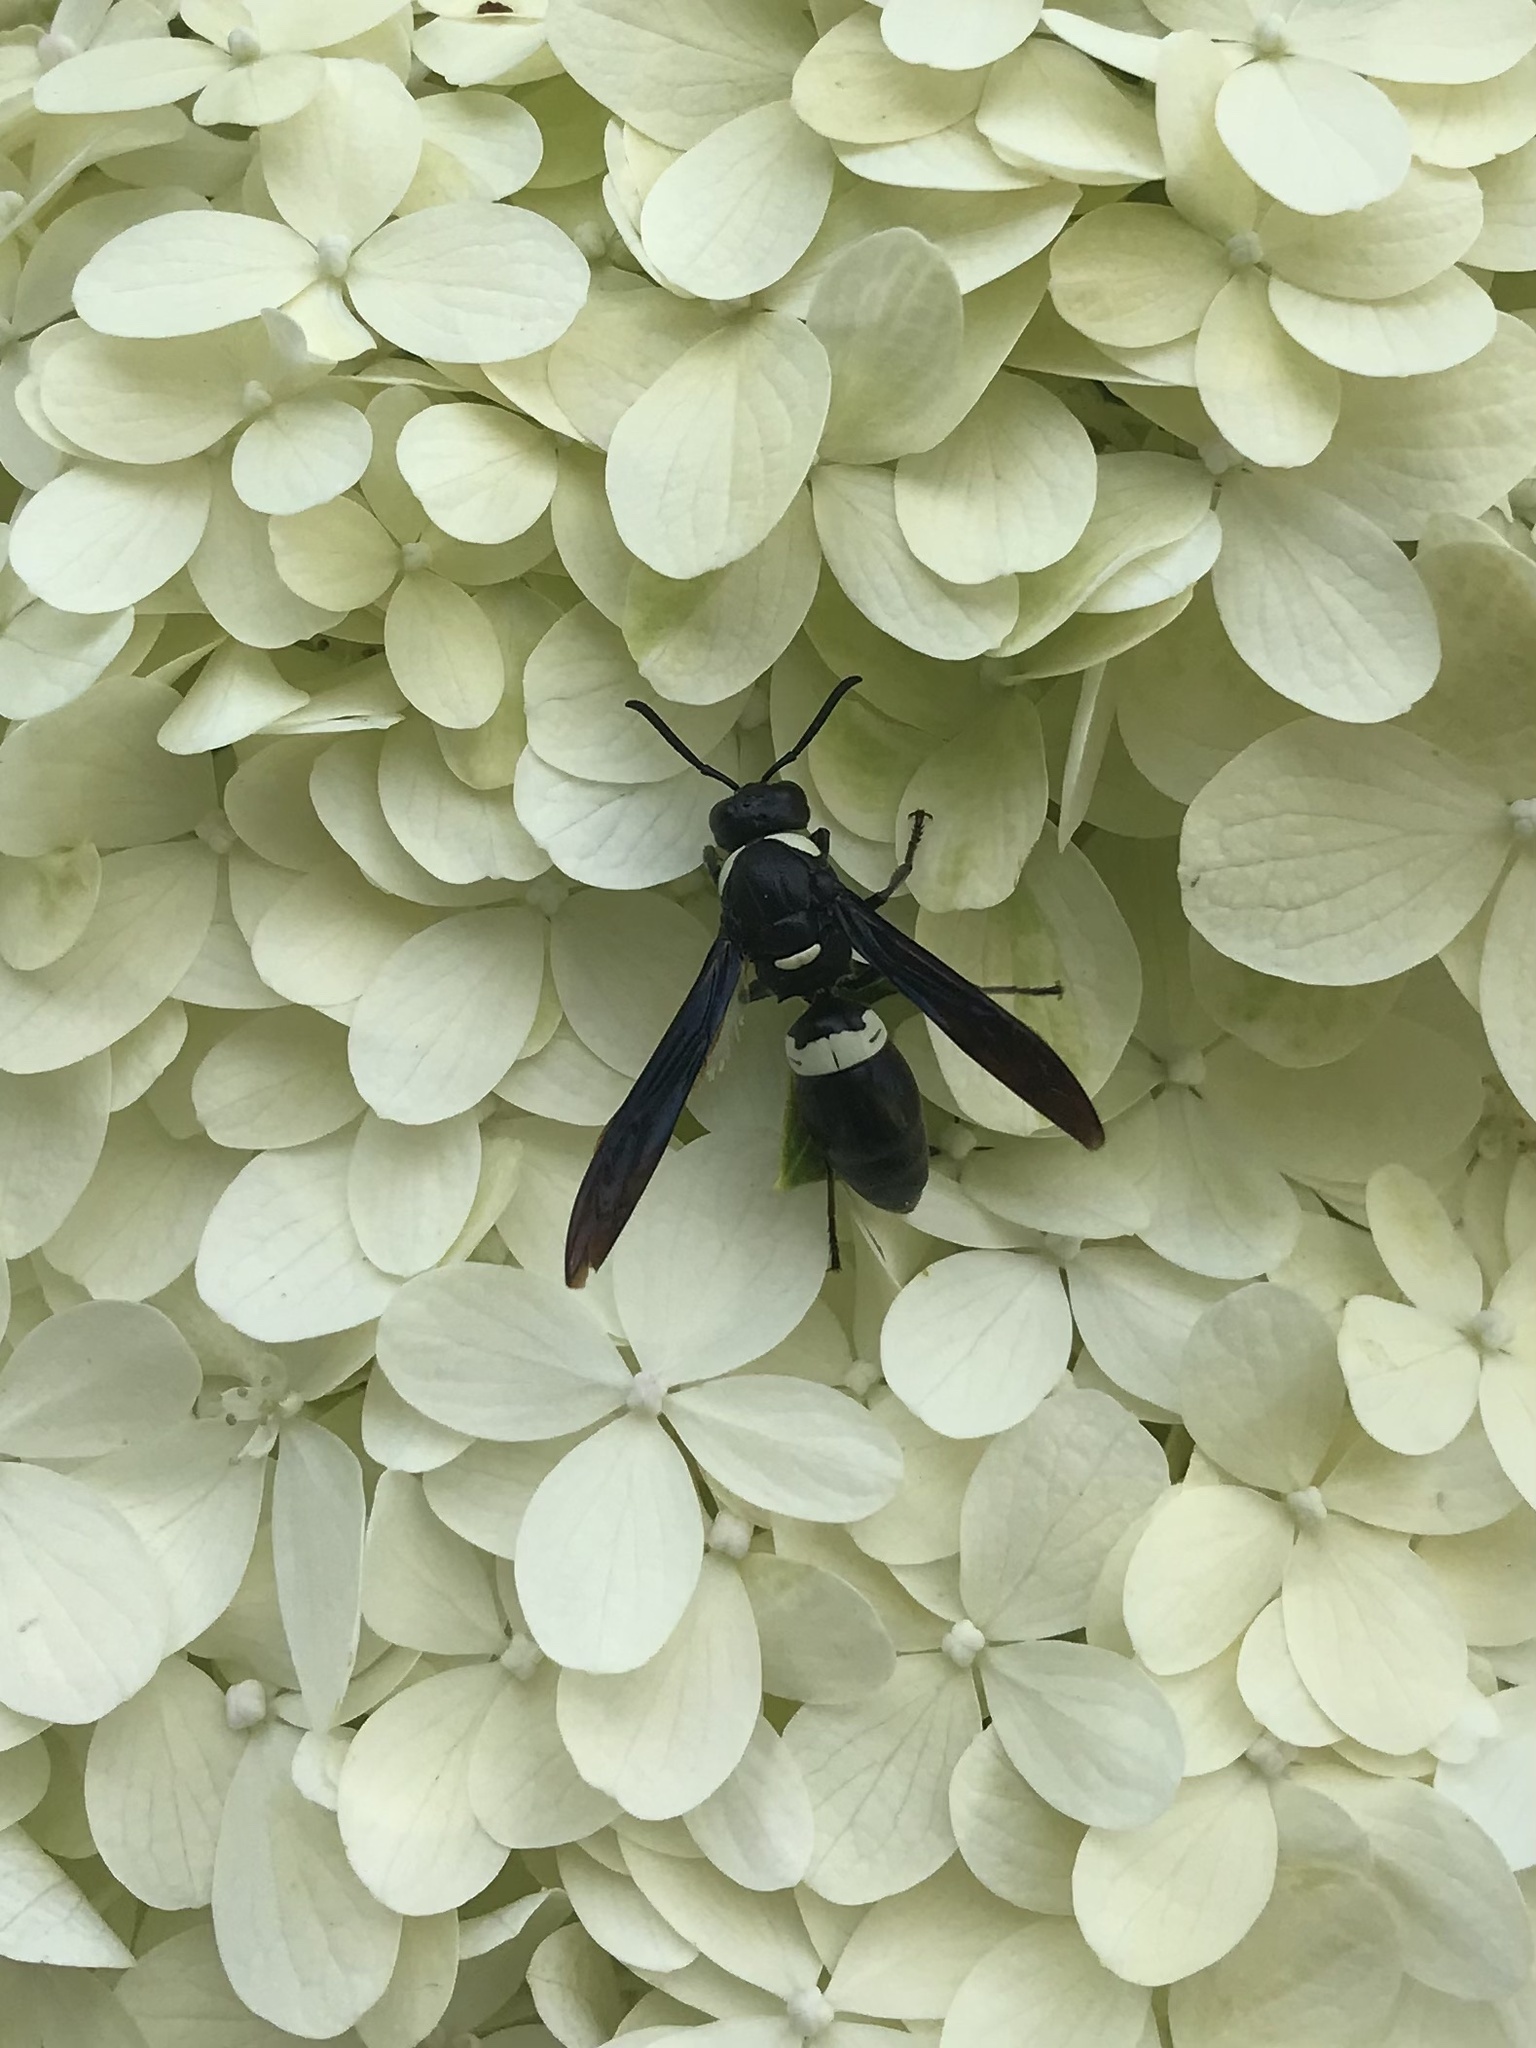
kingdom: Animalia
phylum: Arthropoda
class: Insecta
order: Hymenoptera
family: Eumenidae
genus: Monobia
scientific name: Monobia quadridens
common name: Four-toothed mason wasp
